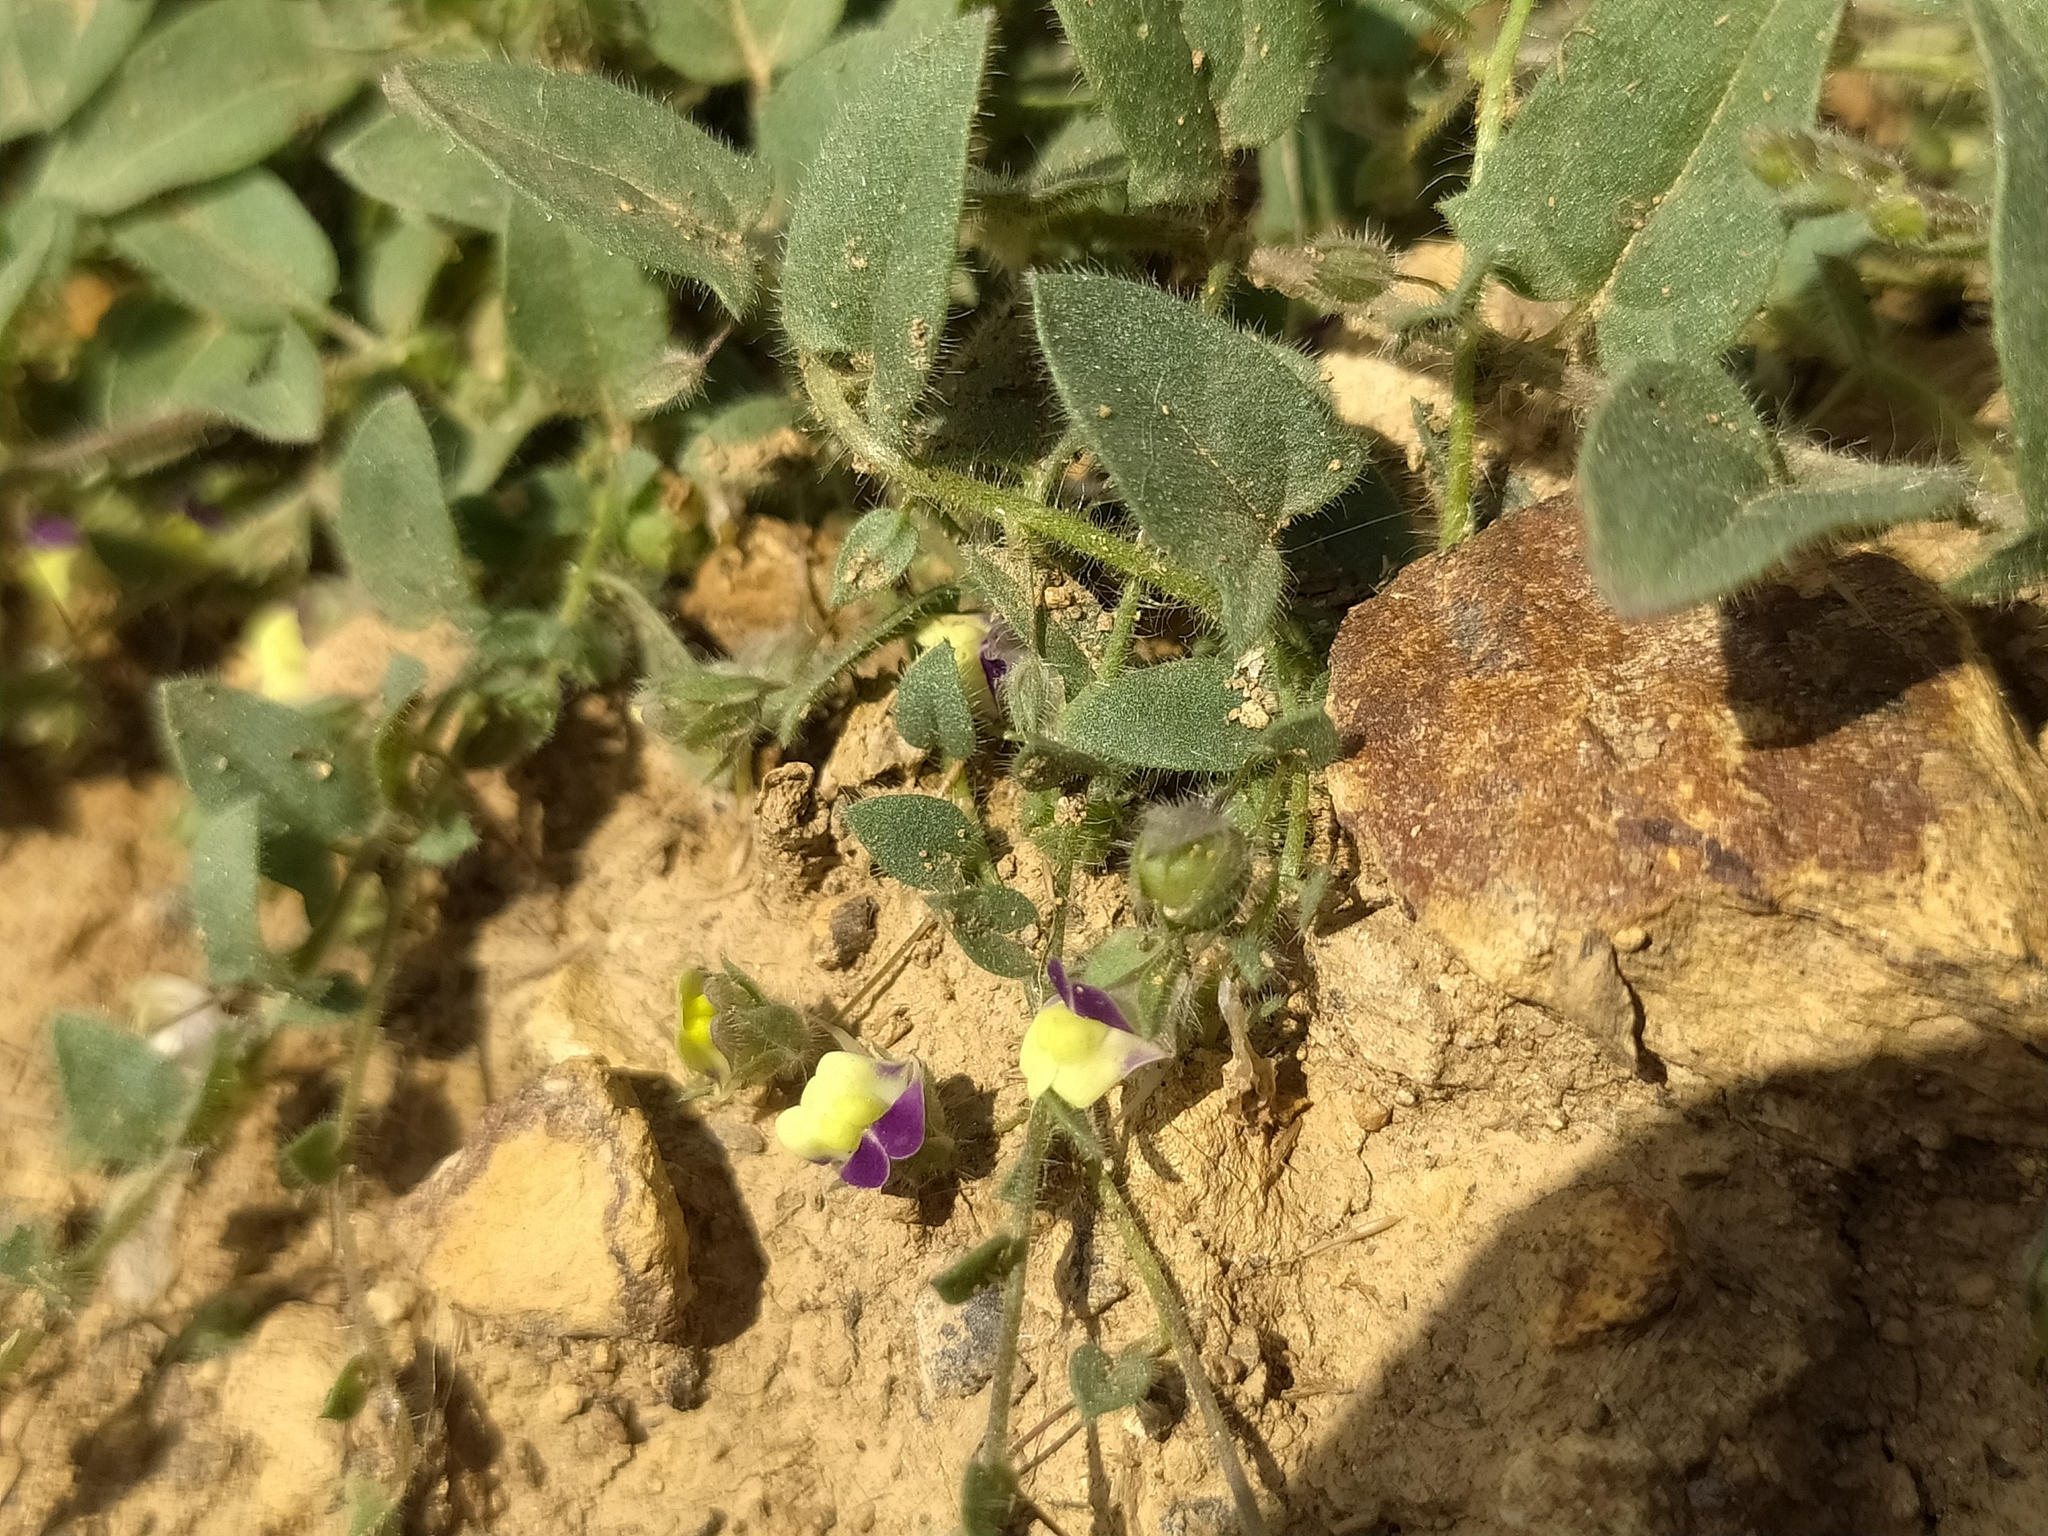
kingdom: Plantae
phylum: Tracheophyta
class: Magnoliopsida
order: Lamiales
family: Plantaginaceae
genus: Kickxia
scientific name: Kickxia elatine
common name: Sharp-leaved fluellen
